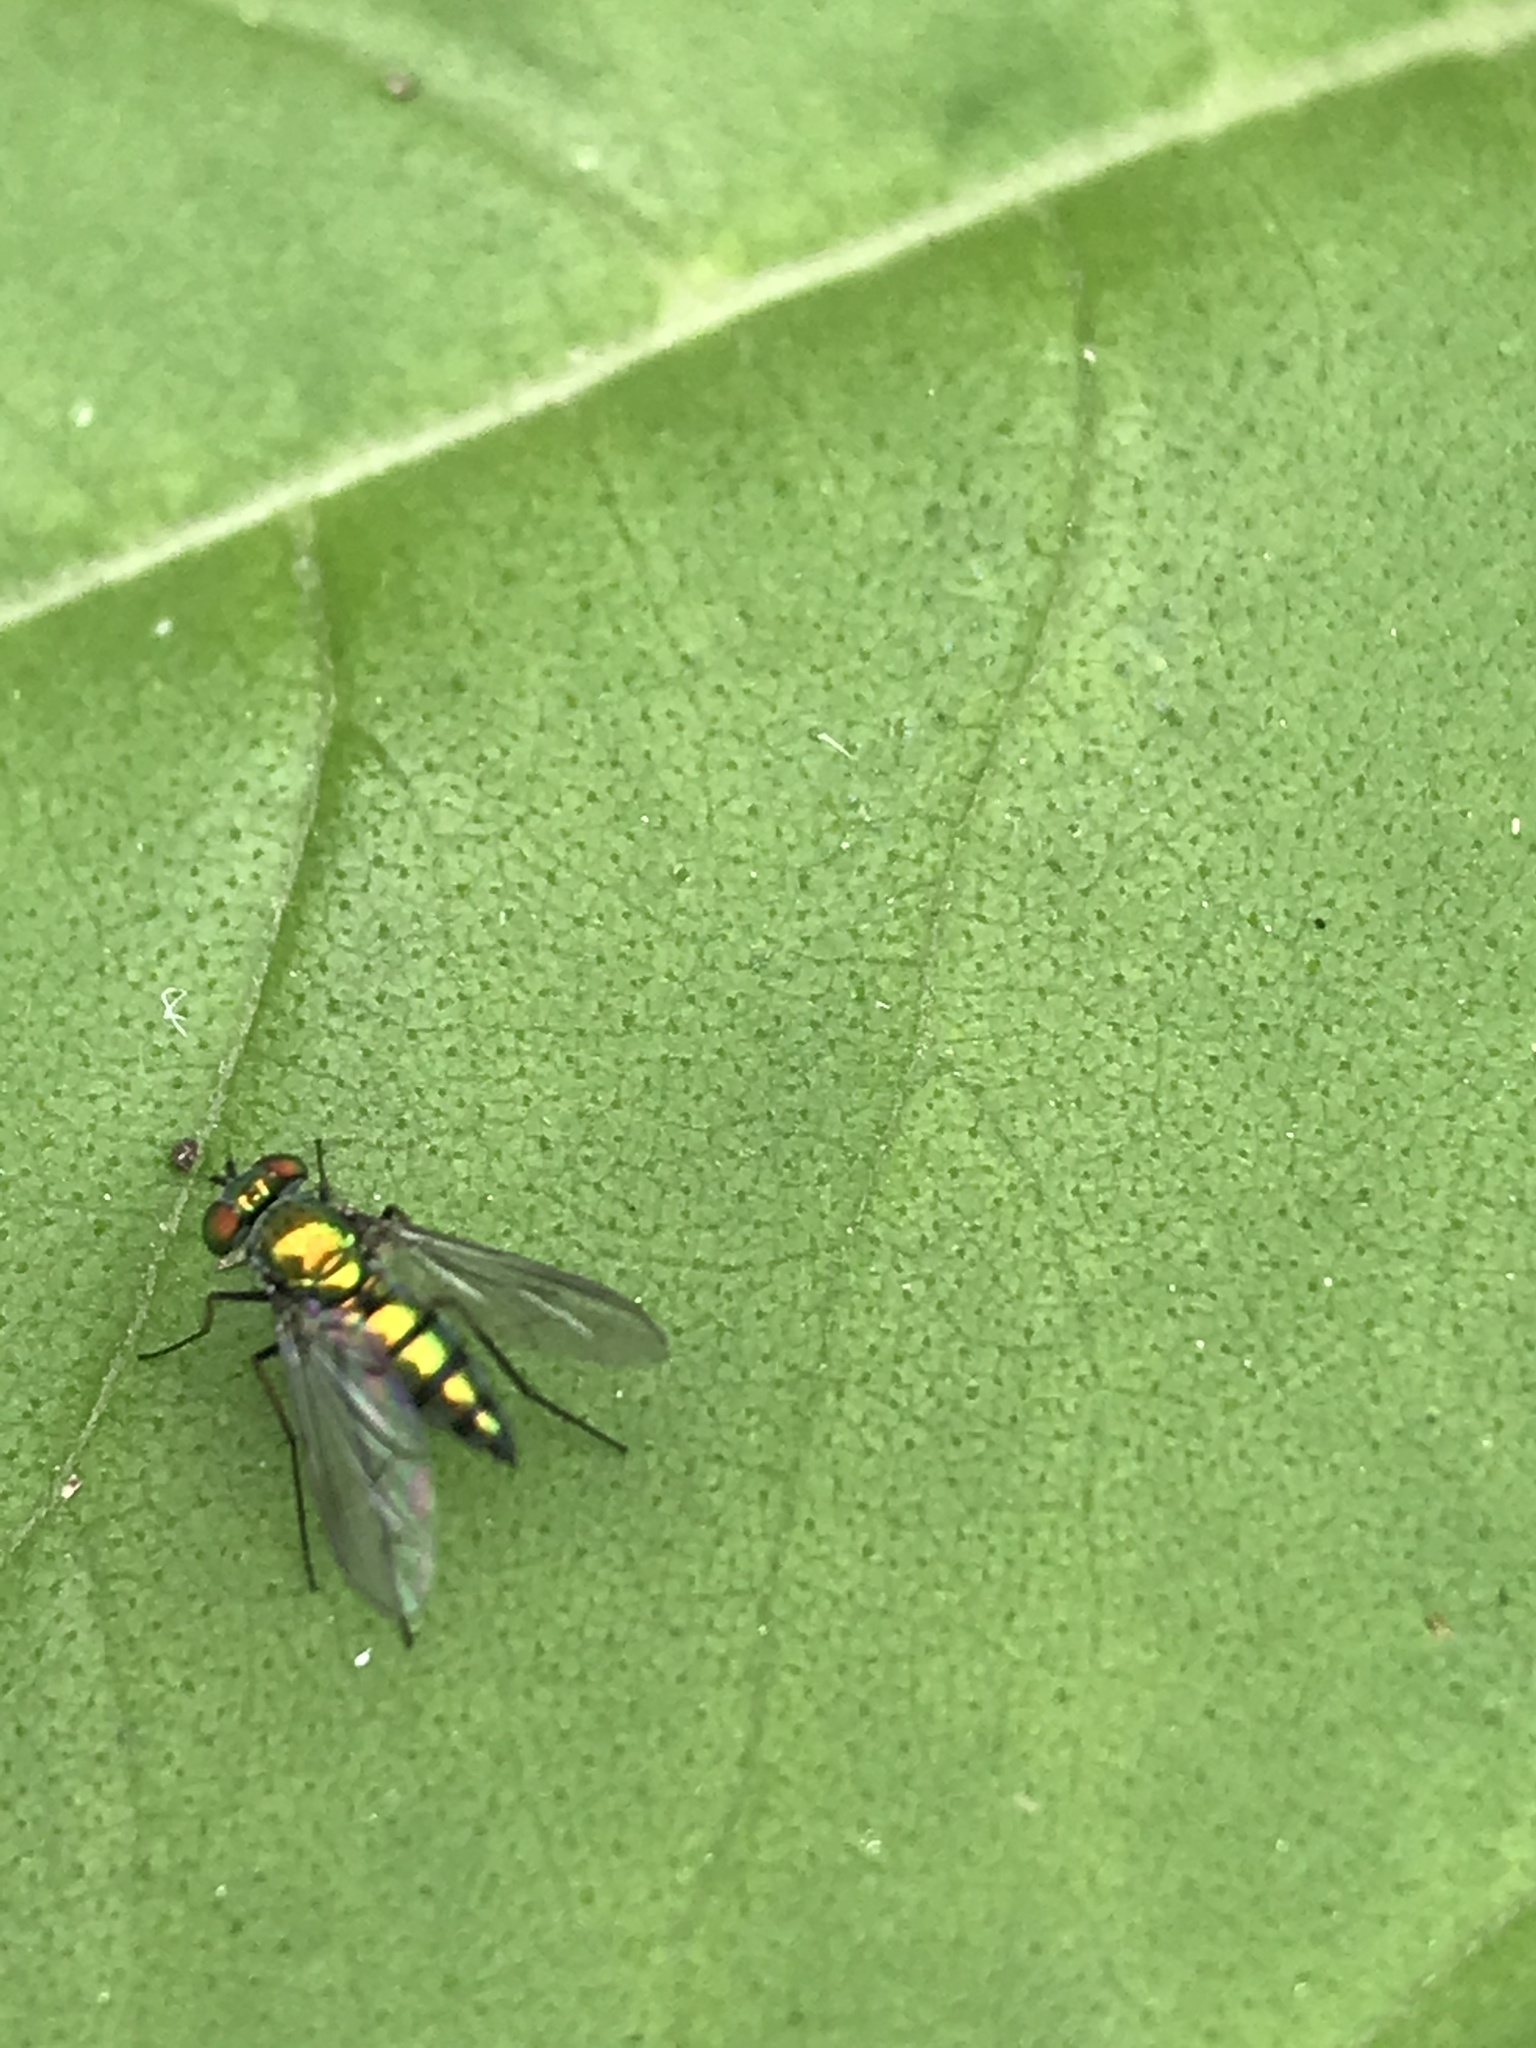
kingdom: Animalia
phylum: Arthropoda
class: Insecta
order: Diptera
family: Dolichopodidae
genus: Condylostylus
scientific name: Condylostylus longicornis
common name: Long-legged fly
